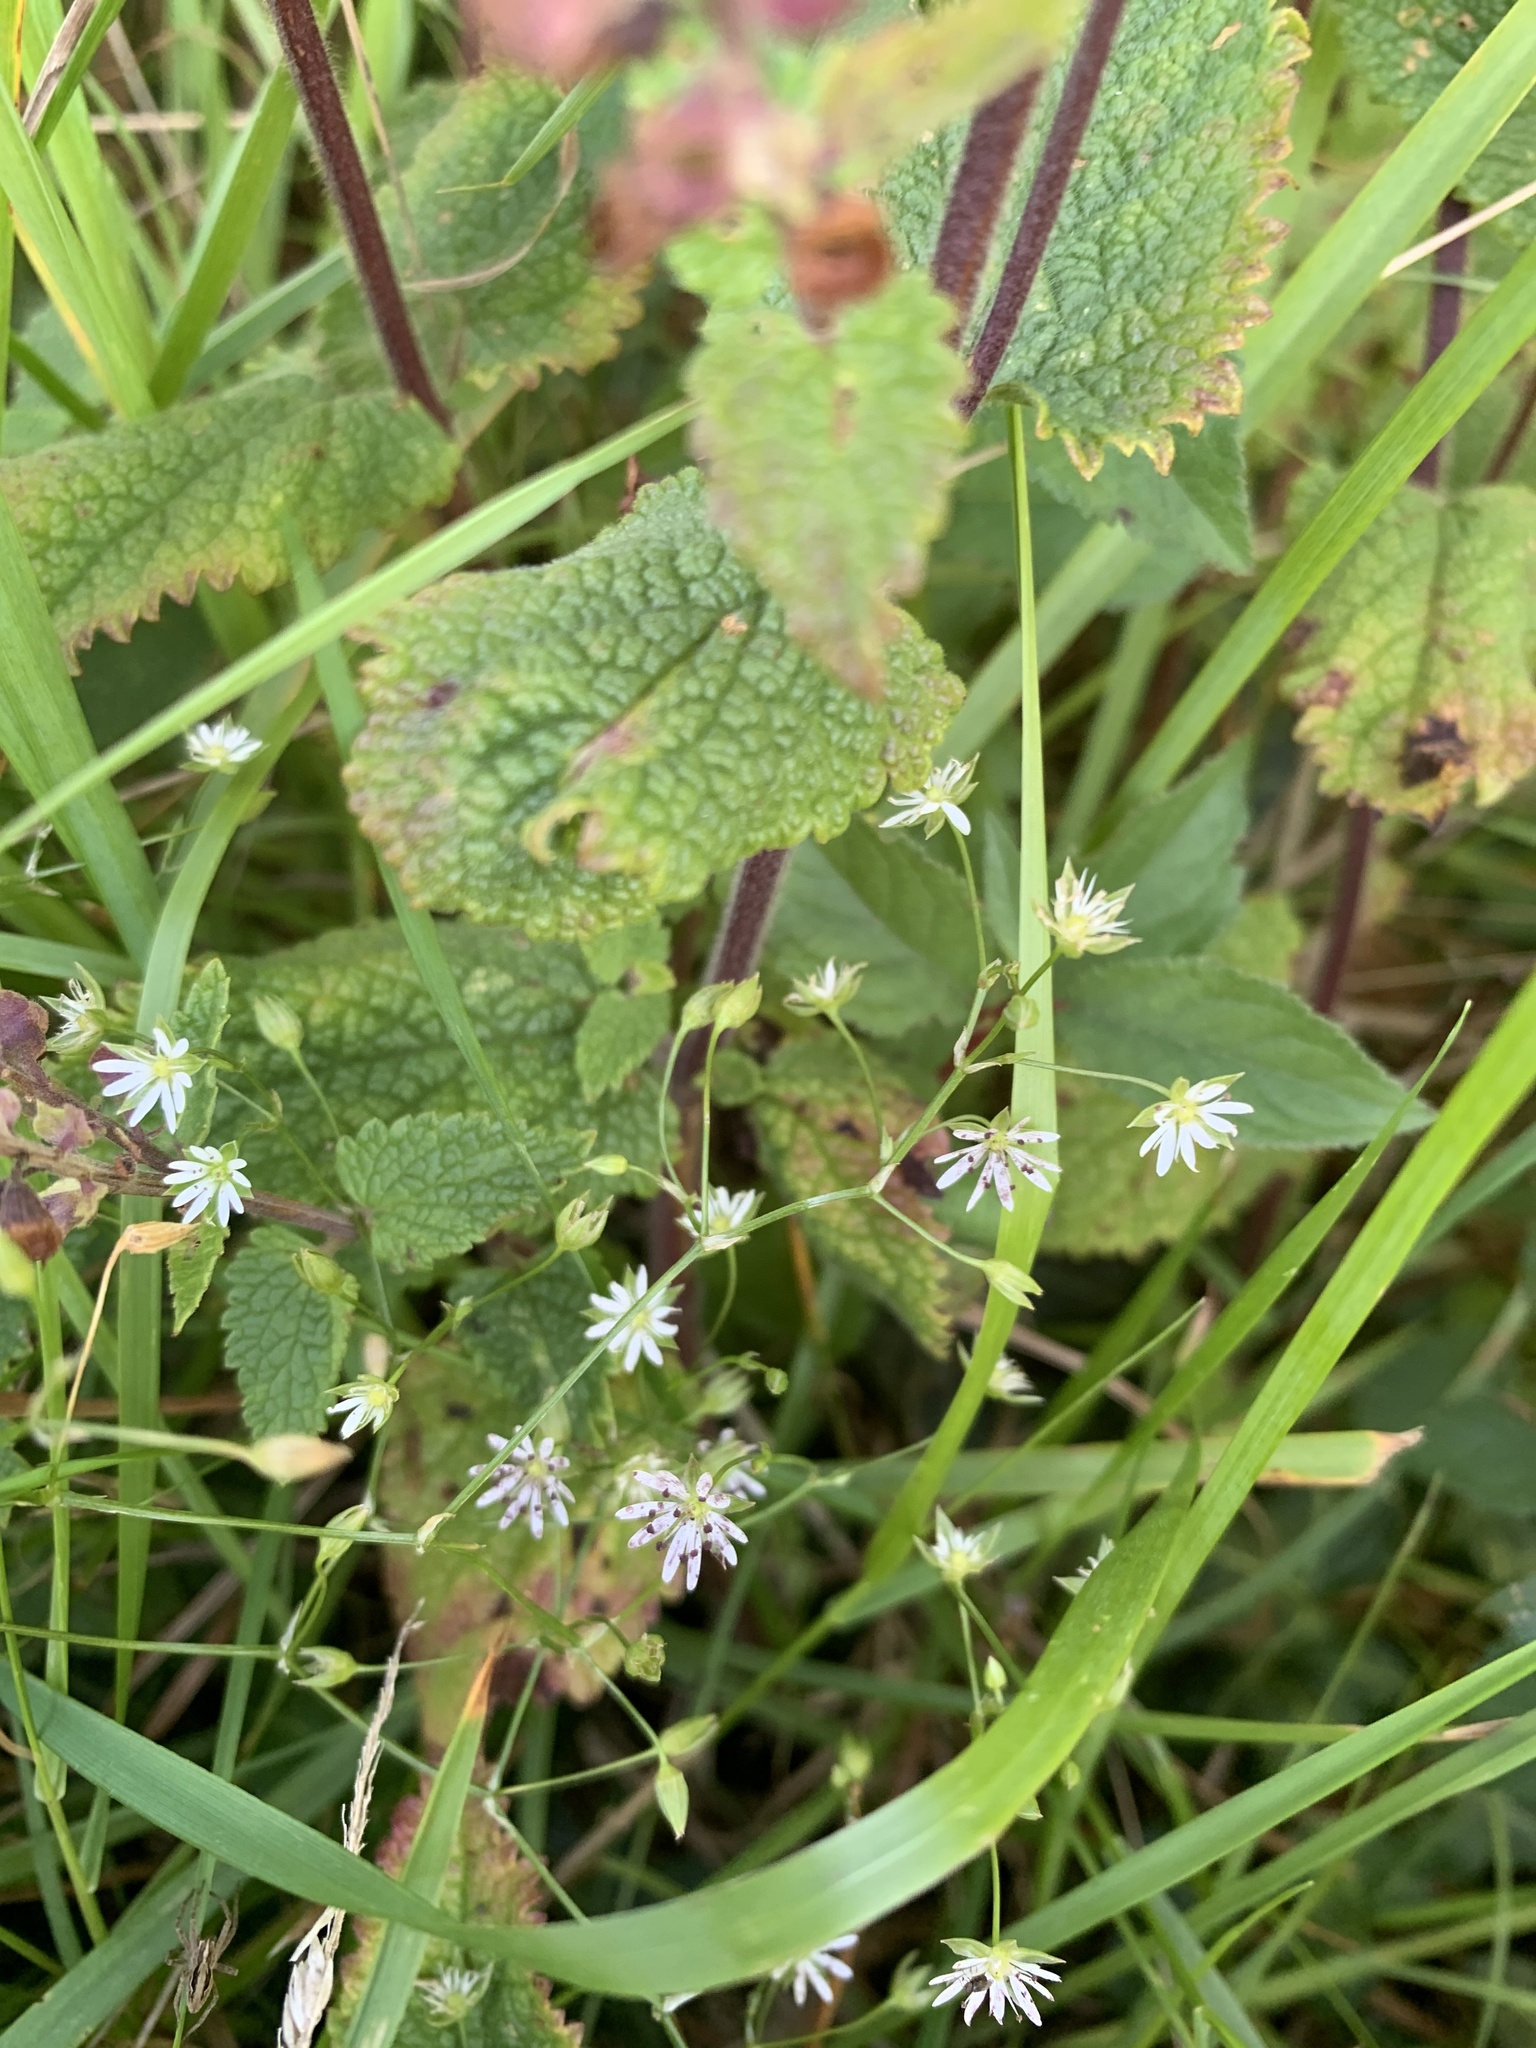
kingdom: Plantae
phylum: Tracheophyta
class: Magnoliopsida
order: Caryophyllales
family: Caryophyllaceae
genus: Stellaria
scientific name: Stellaria graminea
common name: Grass-like starwort
